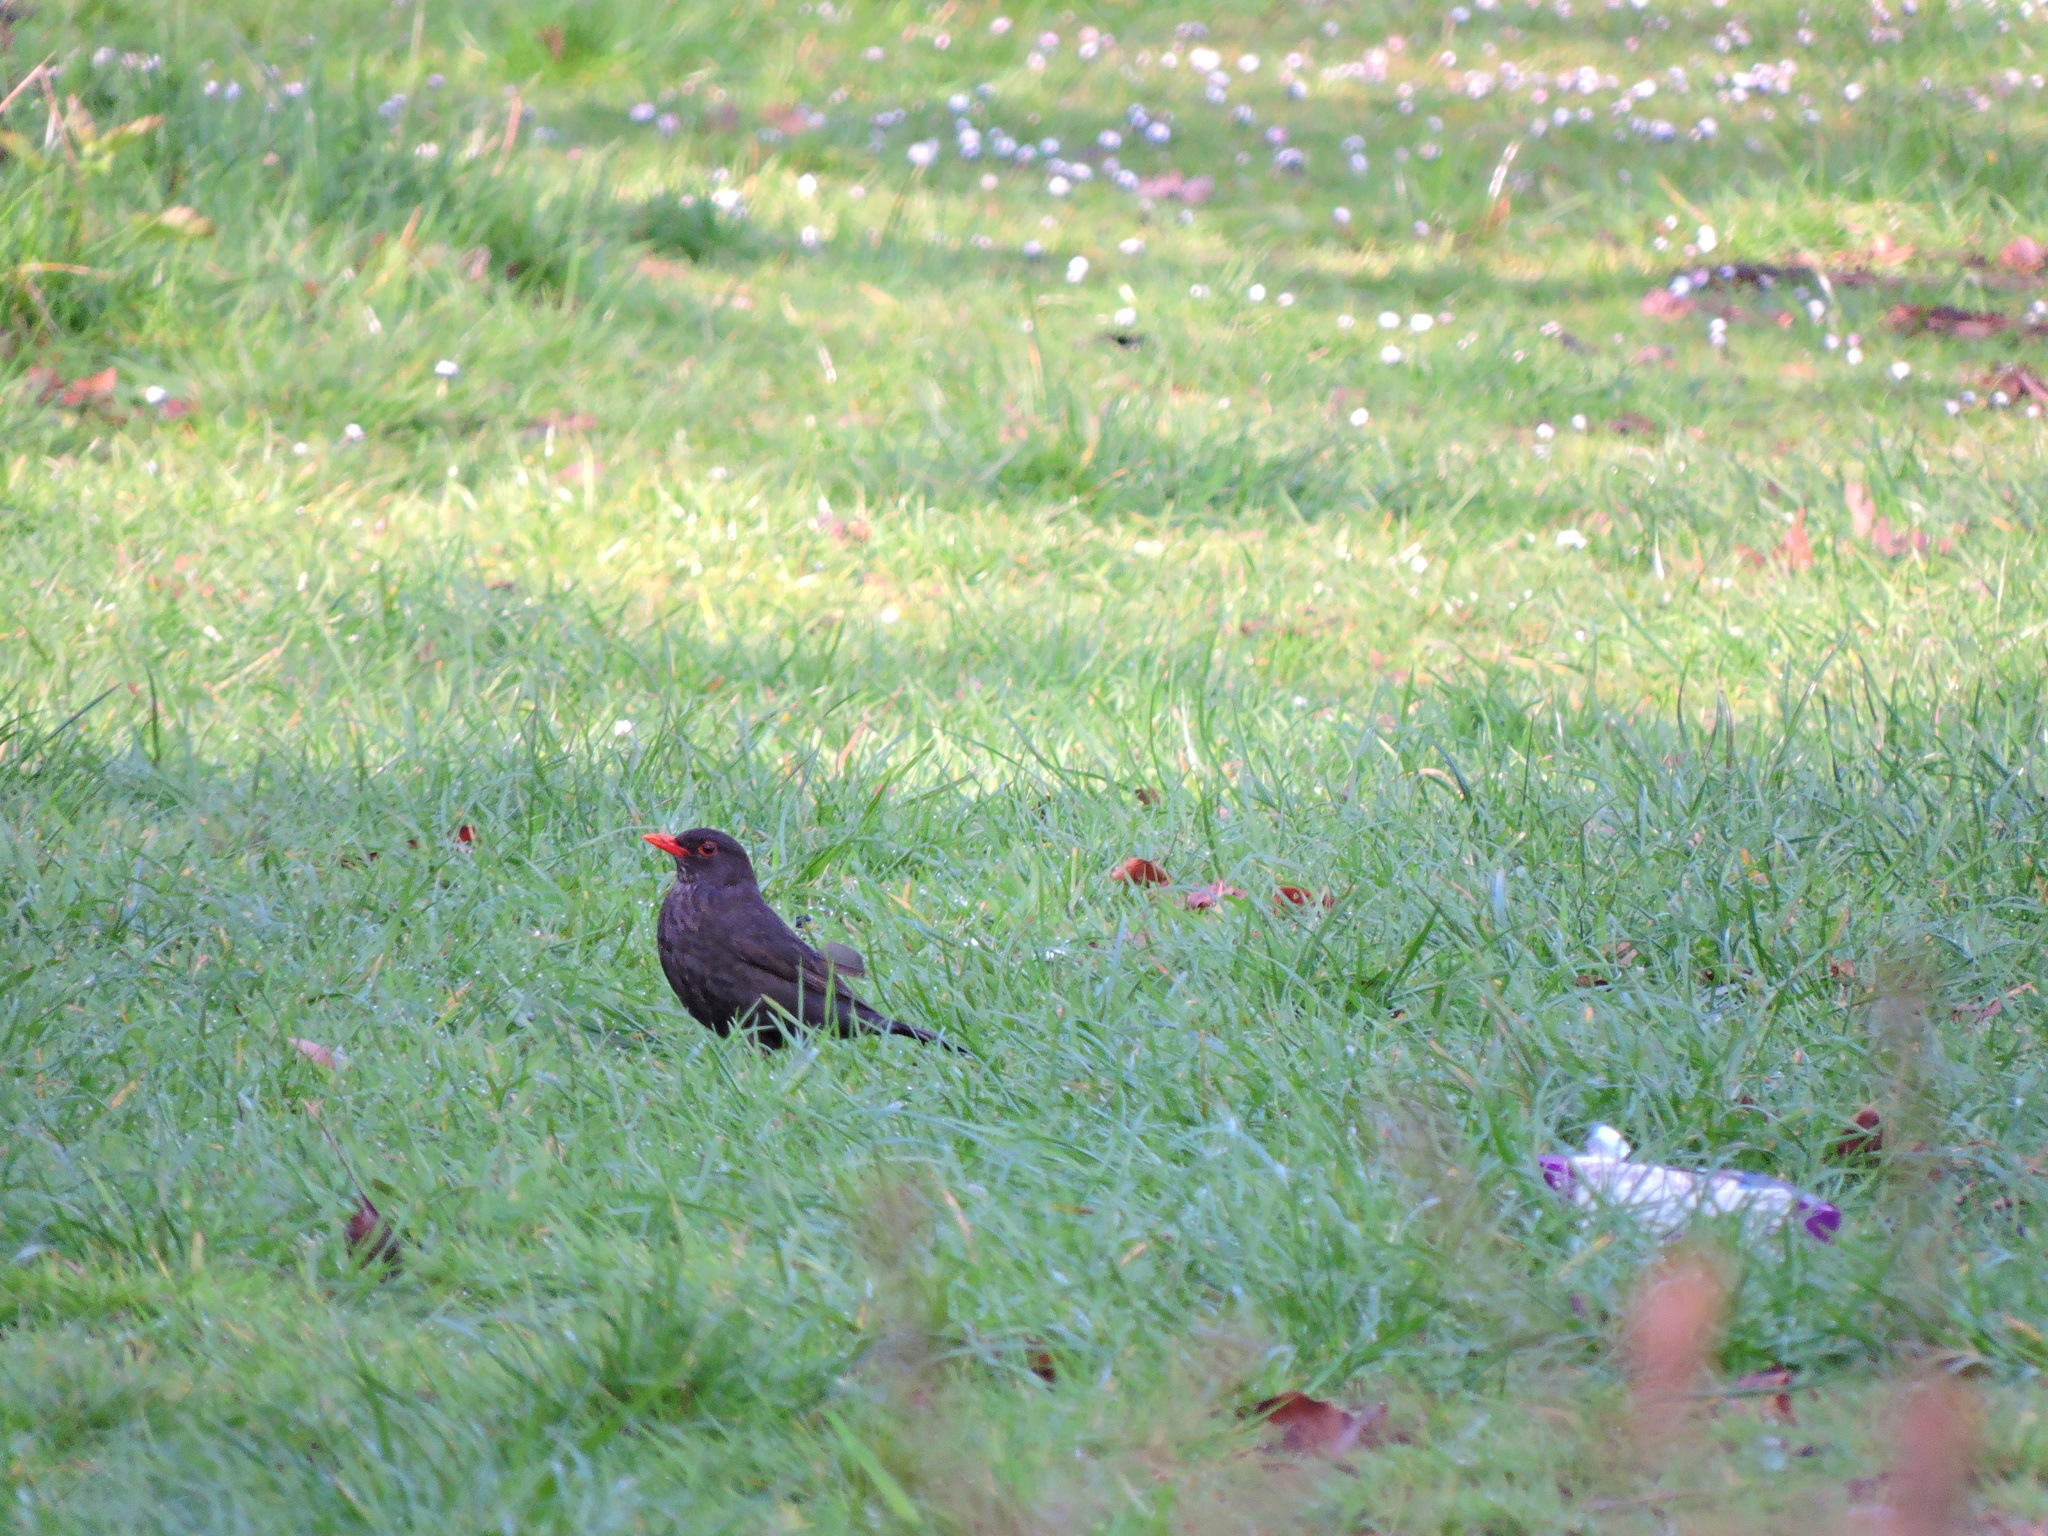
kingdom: Animalia
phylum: Chordata
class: Aves
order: Passeriformes
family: Turdidae
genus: Turdus
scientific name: Turdus merula
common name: Common blackbird
